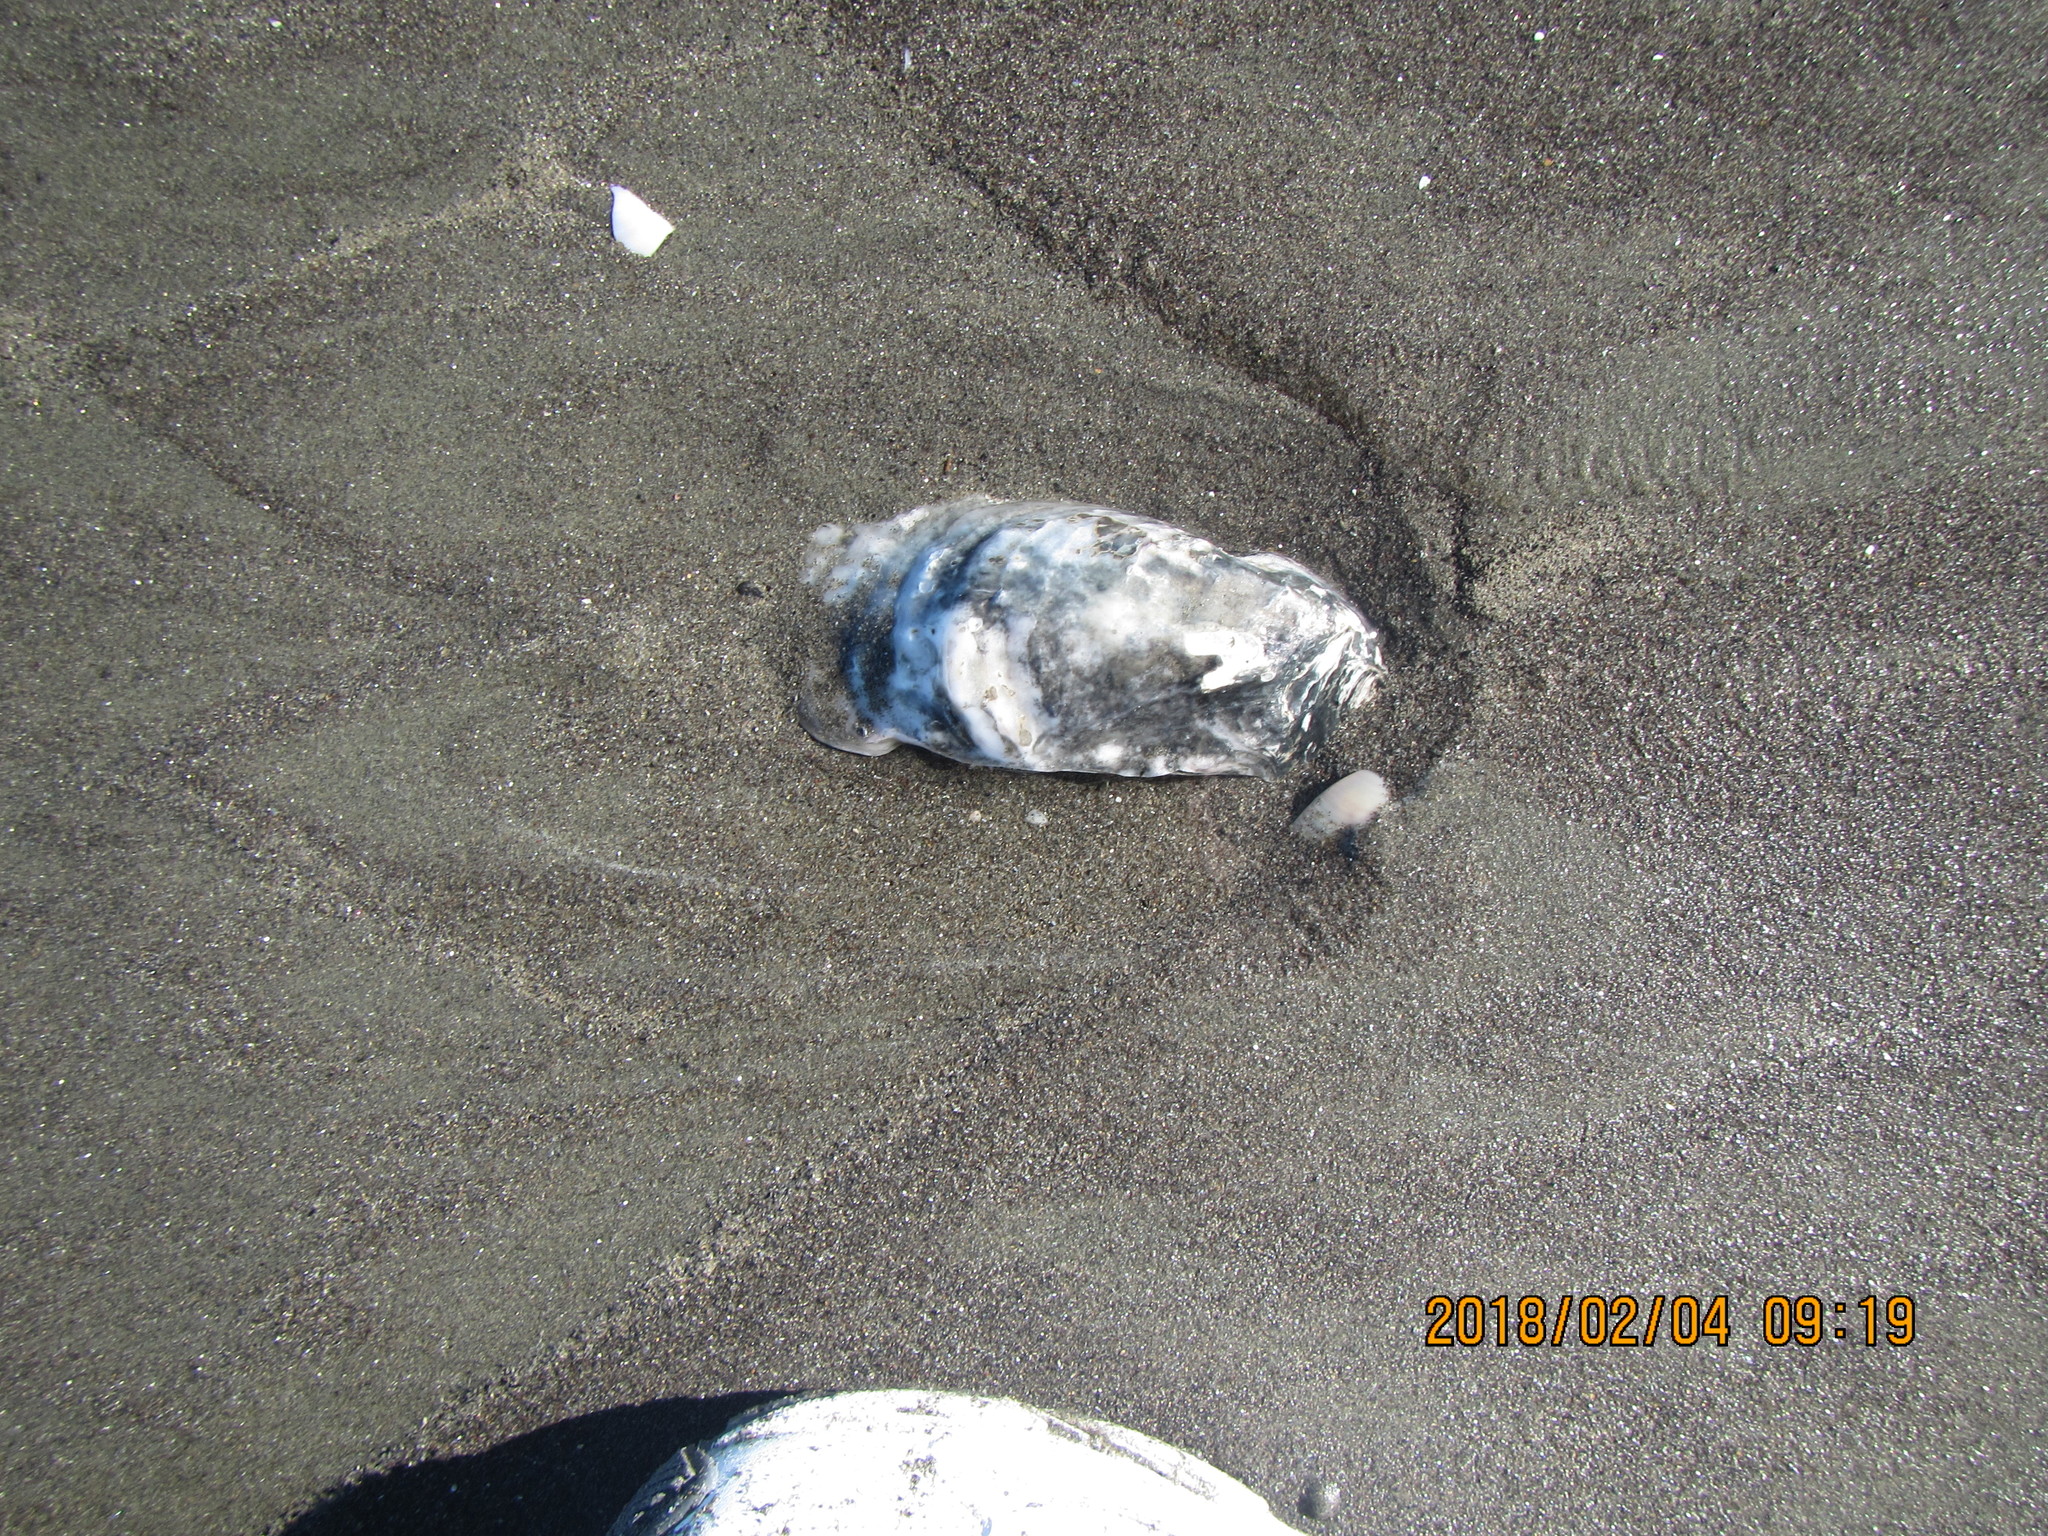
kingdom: Animalia
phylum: Mollusca
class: Bivalvia
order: Ostreida
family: Ostreidae
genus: Magallana
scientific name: Magallana gigas
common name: Pacific oyster
